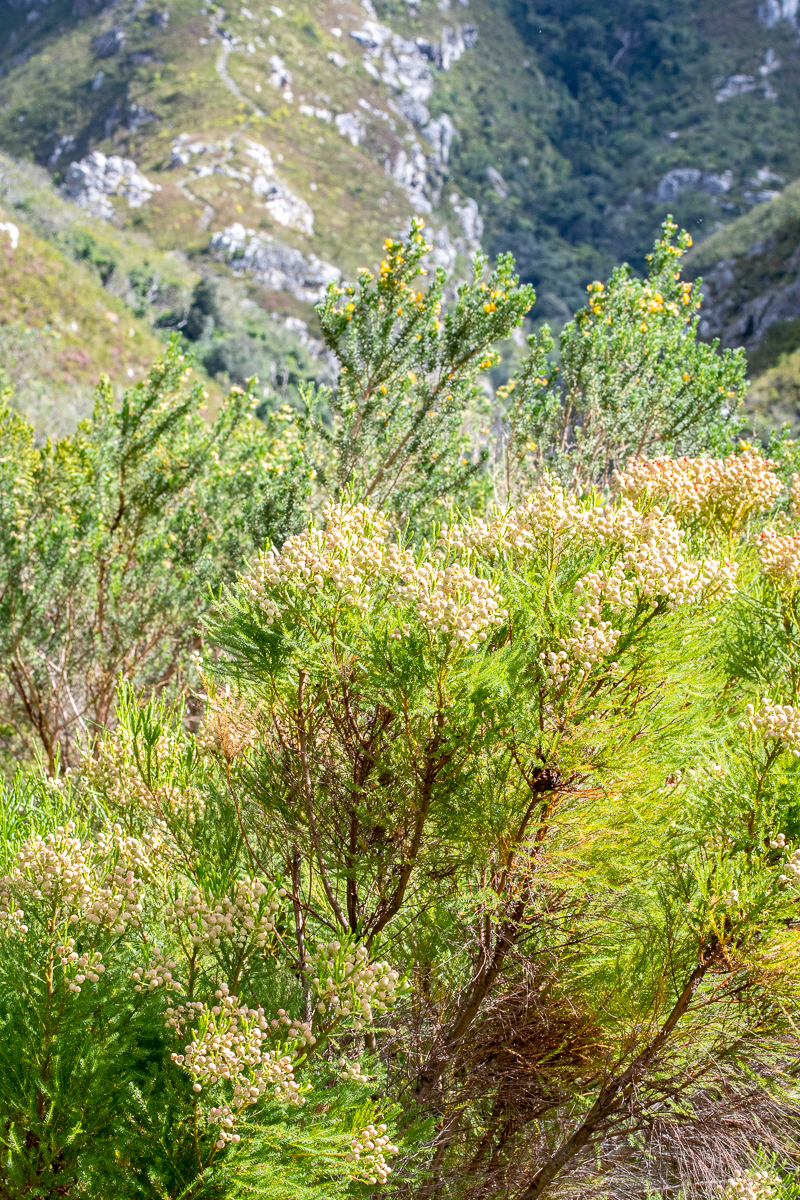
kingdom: Plantae
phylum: Tracheophyta
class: Magnoliopsida
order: Bruniales
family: Bruniaceae
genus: Berzelia
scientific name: Berzelia lanuginosa
